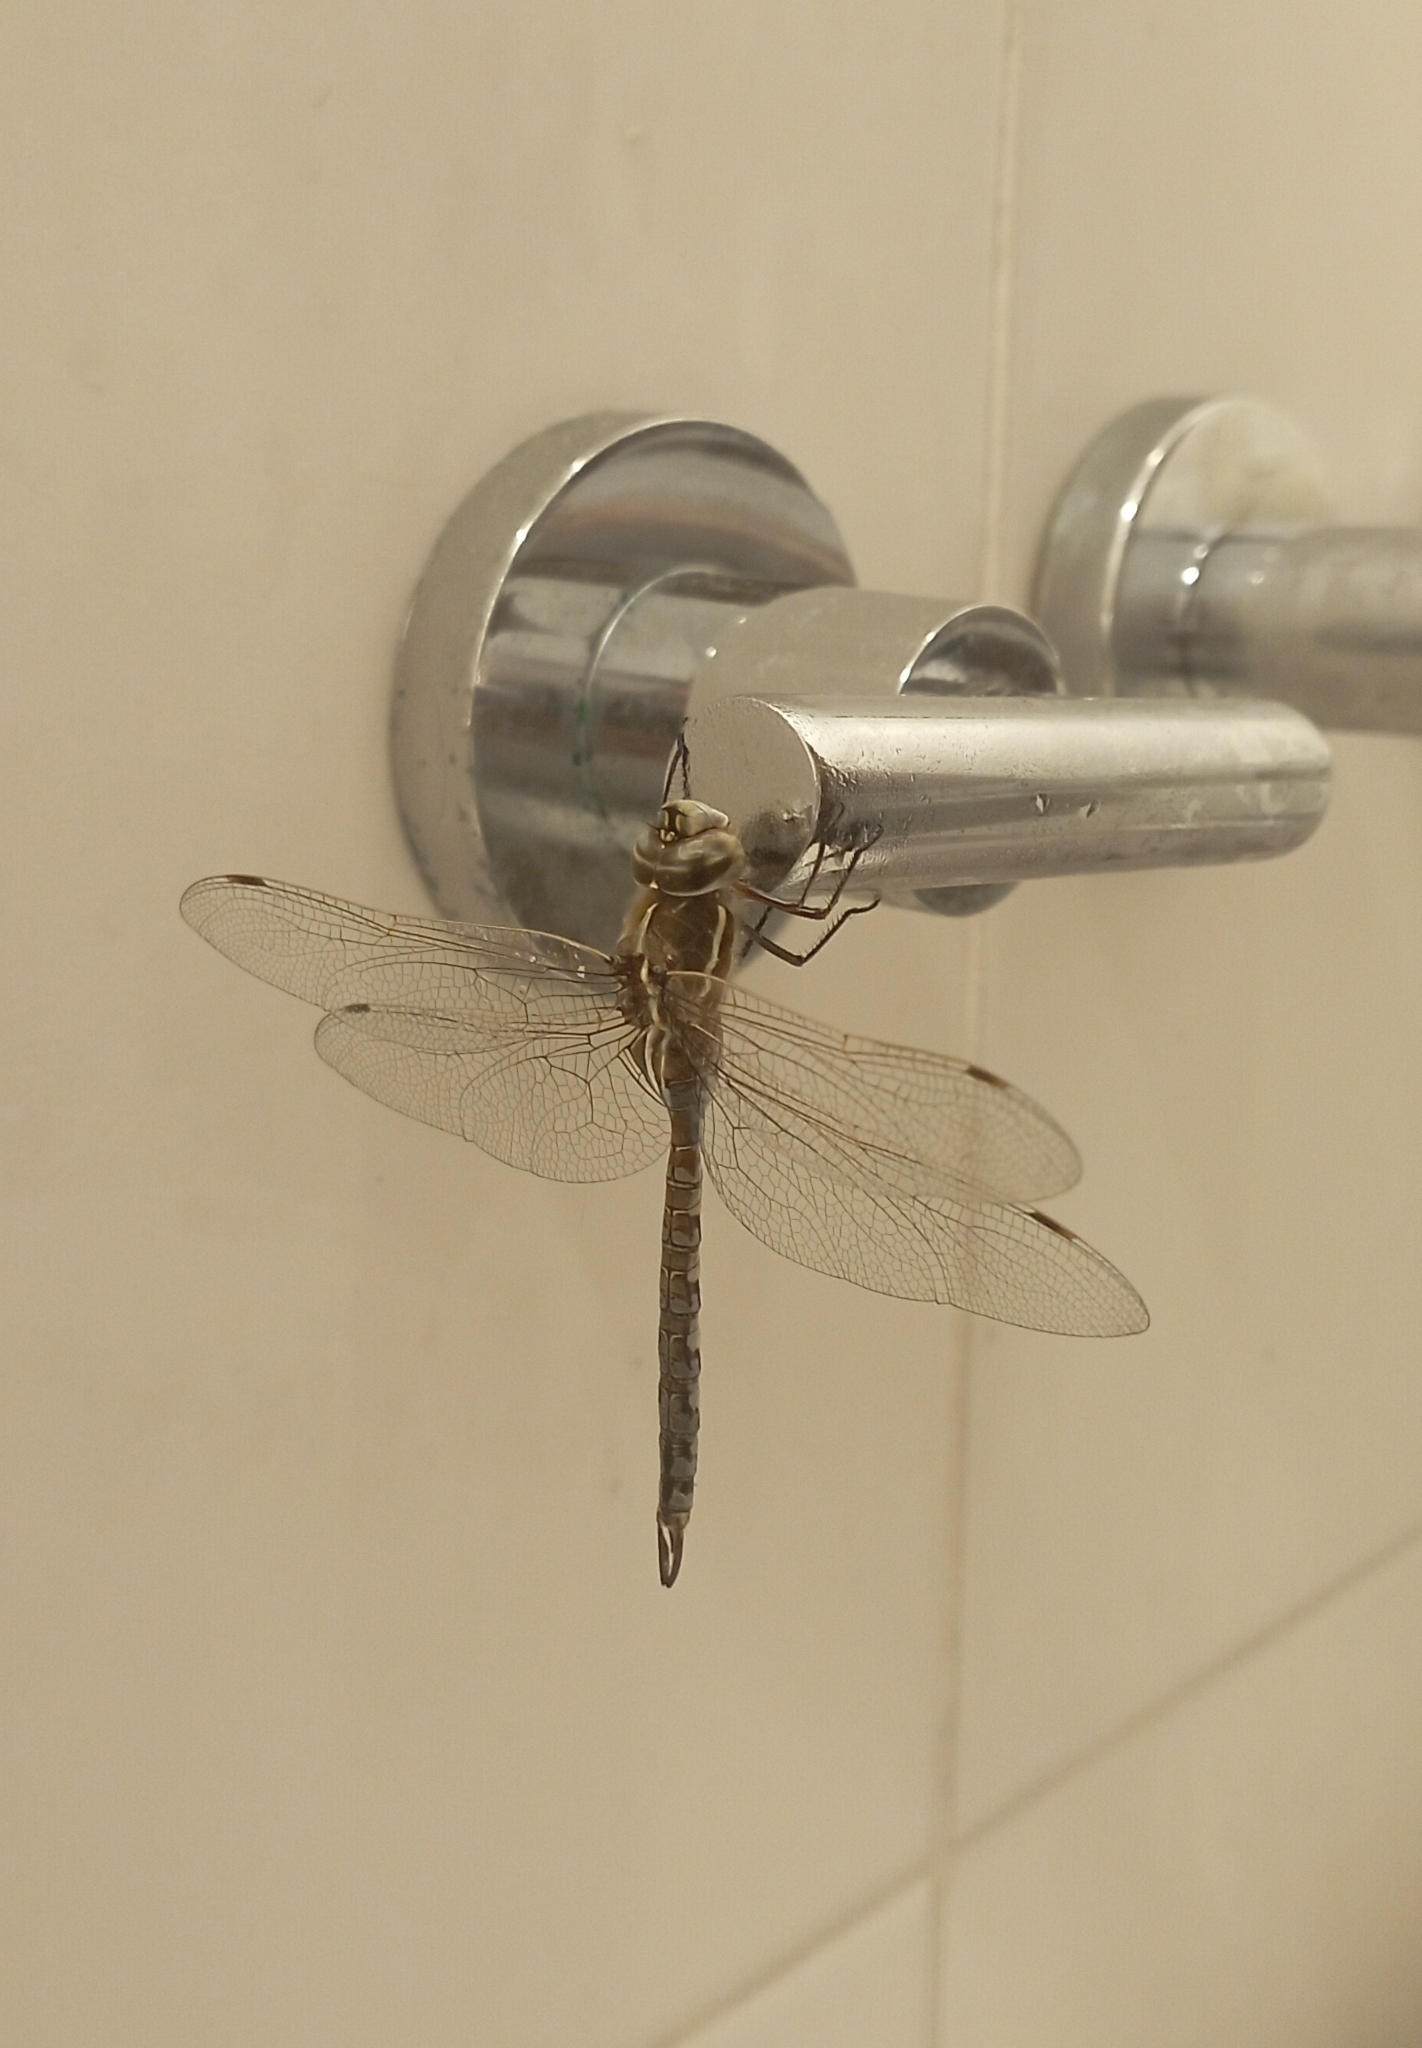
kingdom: Animalia
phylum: Arthropoda
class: Insecta
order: Odonata
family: Aeshnidae
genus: Rhionaeschna
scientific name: Rhionaeschna bonariensis
